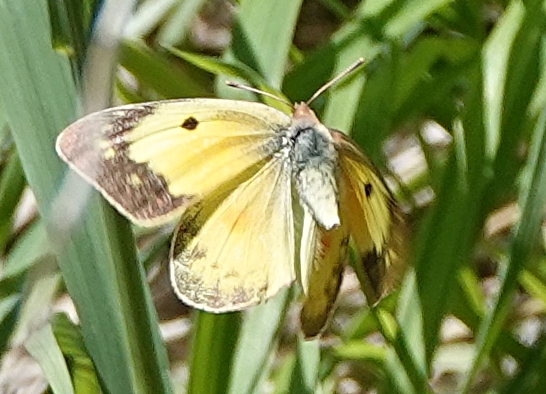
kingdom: Animalia
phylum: Arthropoda
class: Insecta
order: Lepidoptera
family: Pieridae
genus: Colias
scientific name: Colias eurytheme
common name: Alfalfa butterfly
